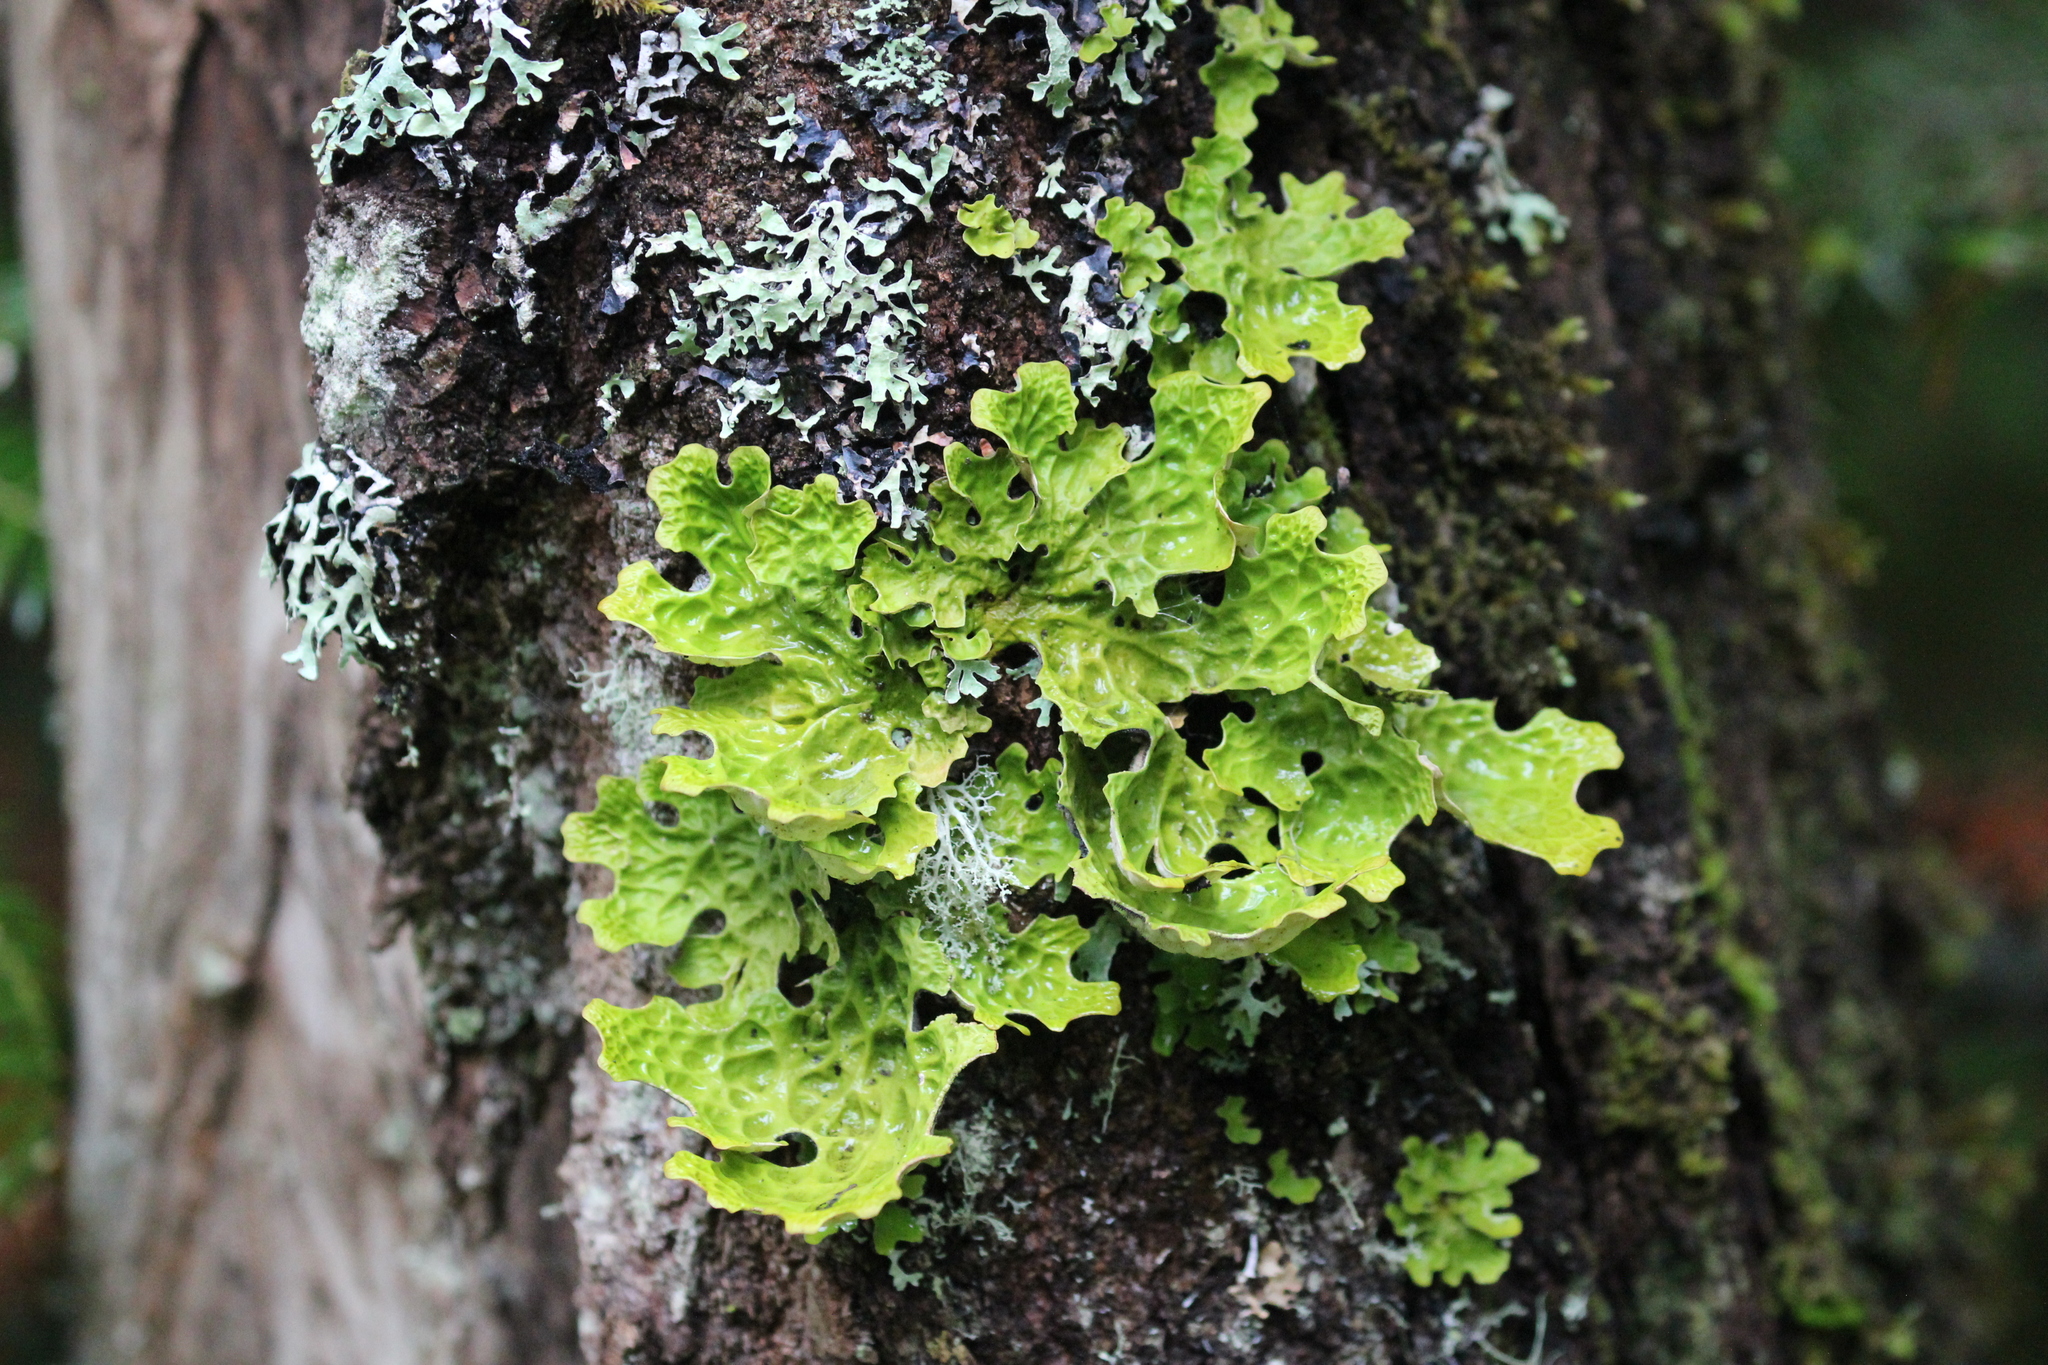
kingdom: Fungi
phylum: Ascomycota
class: Lecanoromycetes
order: Peltigerales
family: Lobariaceae
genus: Lobaria
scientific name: Lobaria pulmonaria
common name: Lungwort
